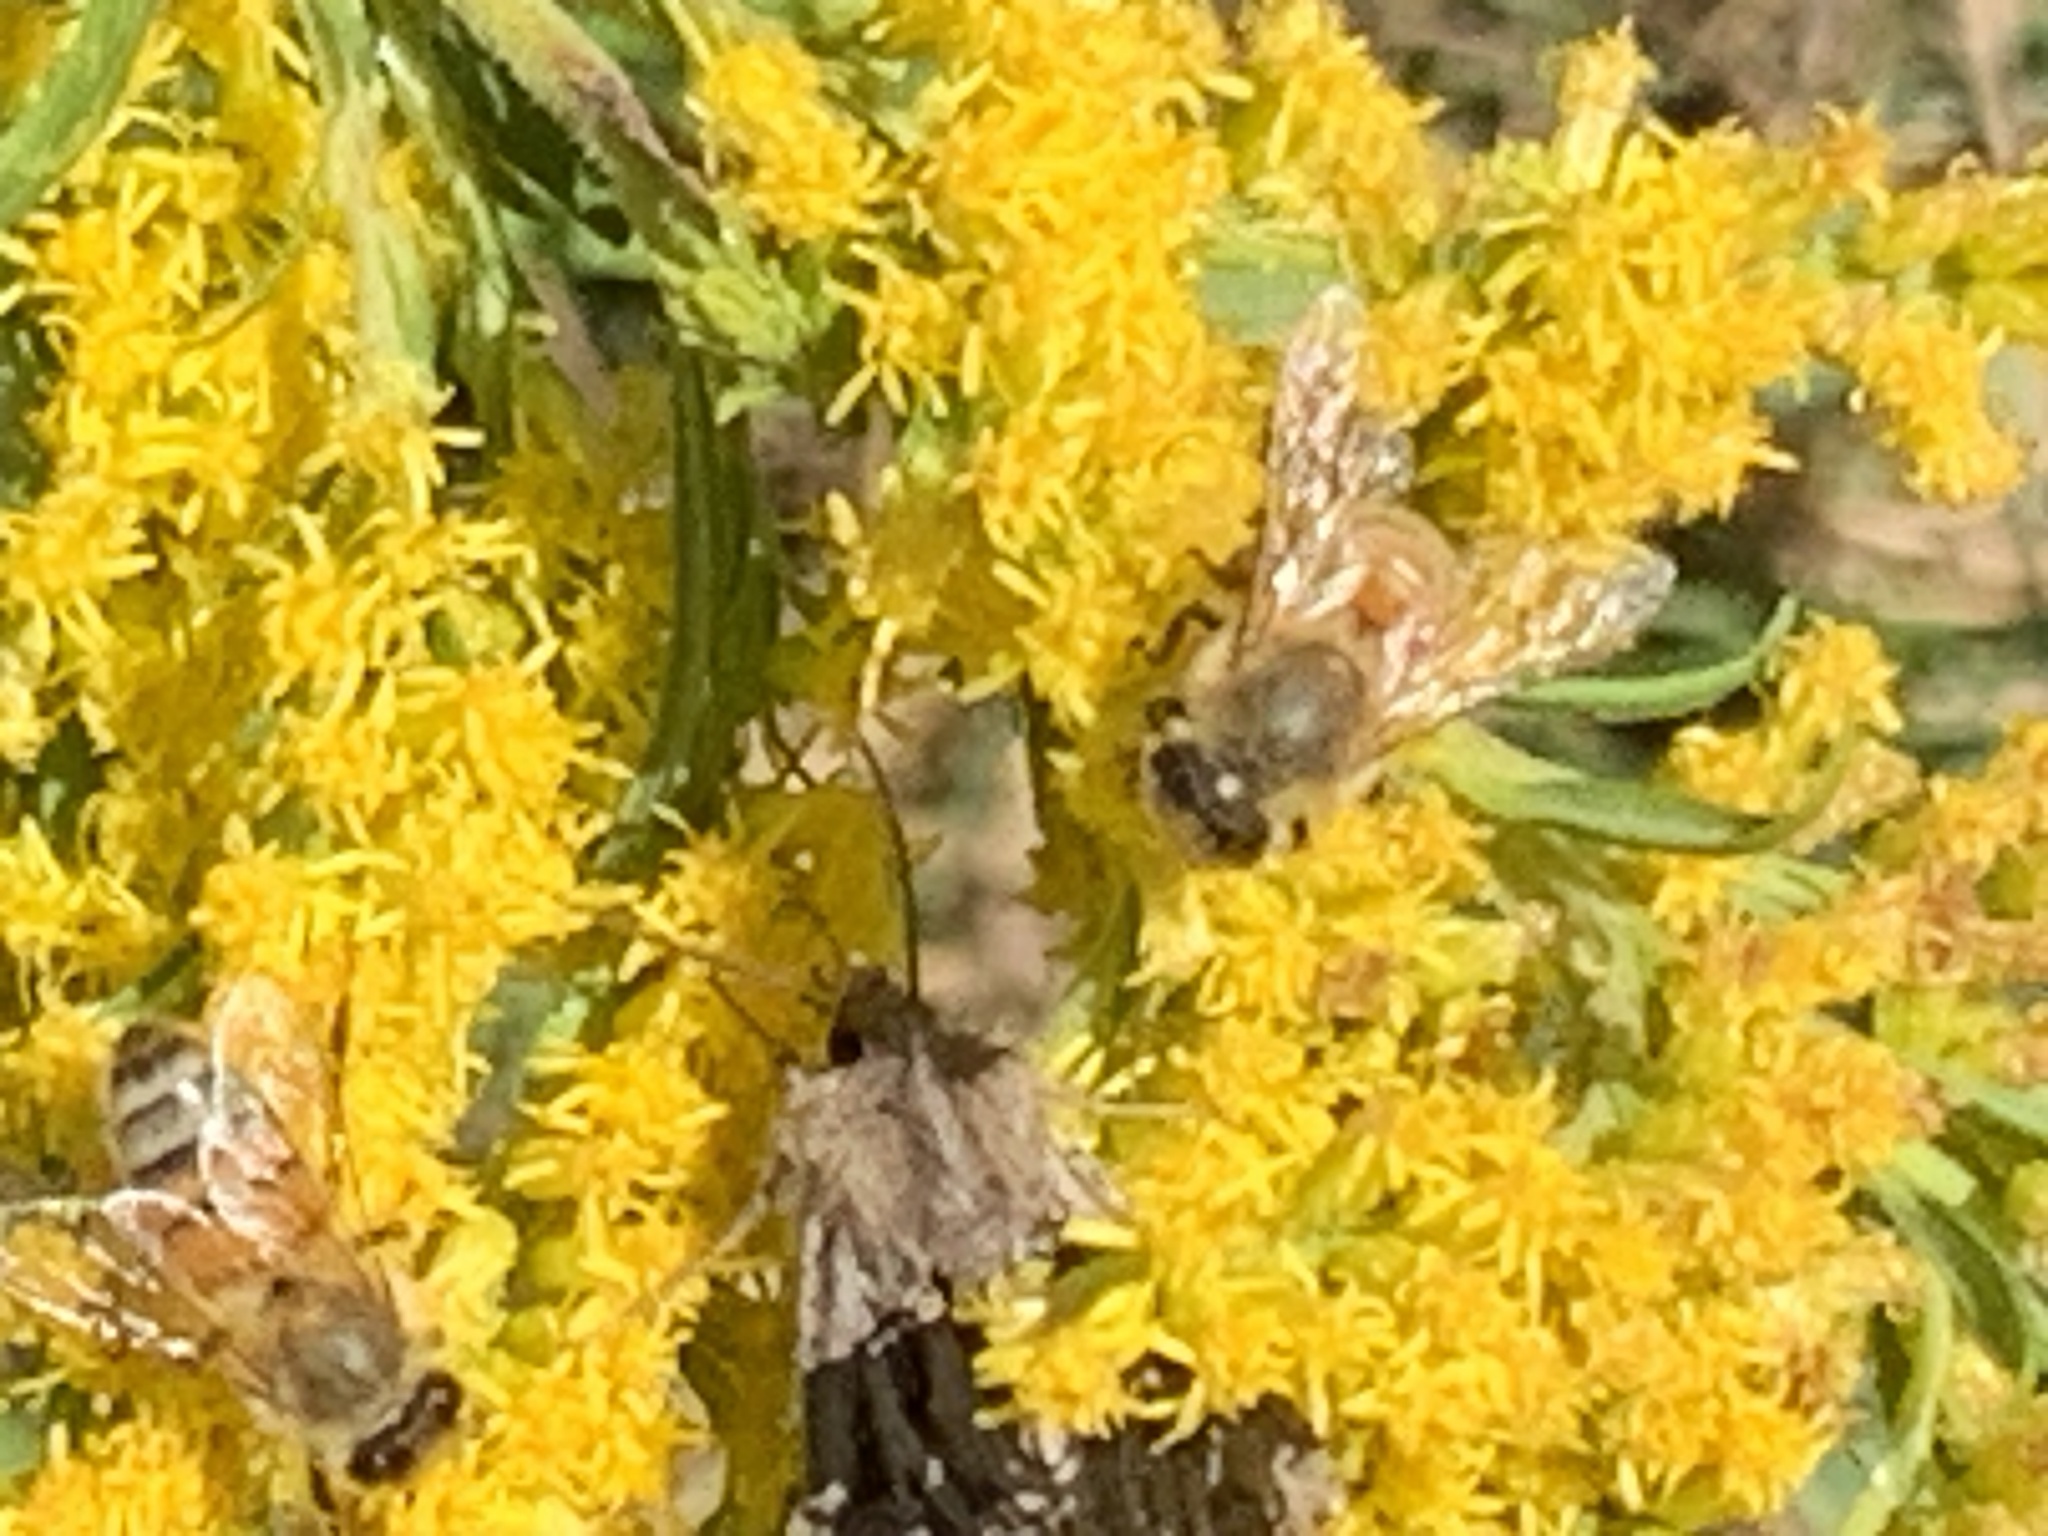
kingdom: Animalia
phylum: Arthropoda
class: Insecta
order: Hymenoptera
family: Apidae
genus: Apis
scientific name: Apis mellifera
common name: Honey bee
